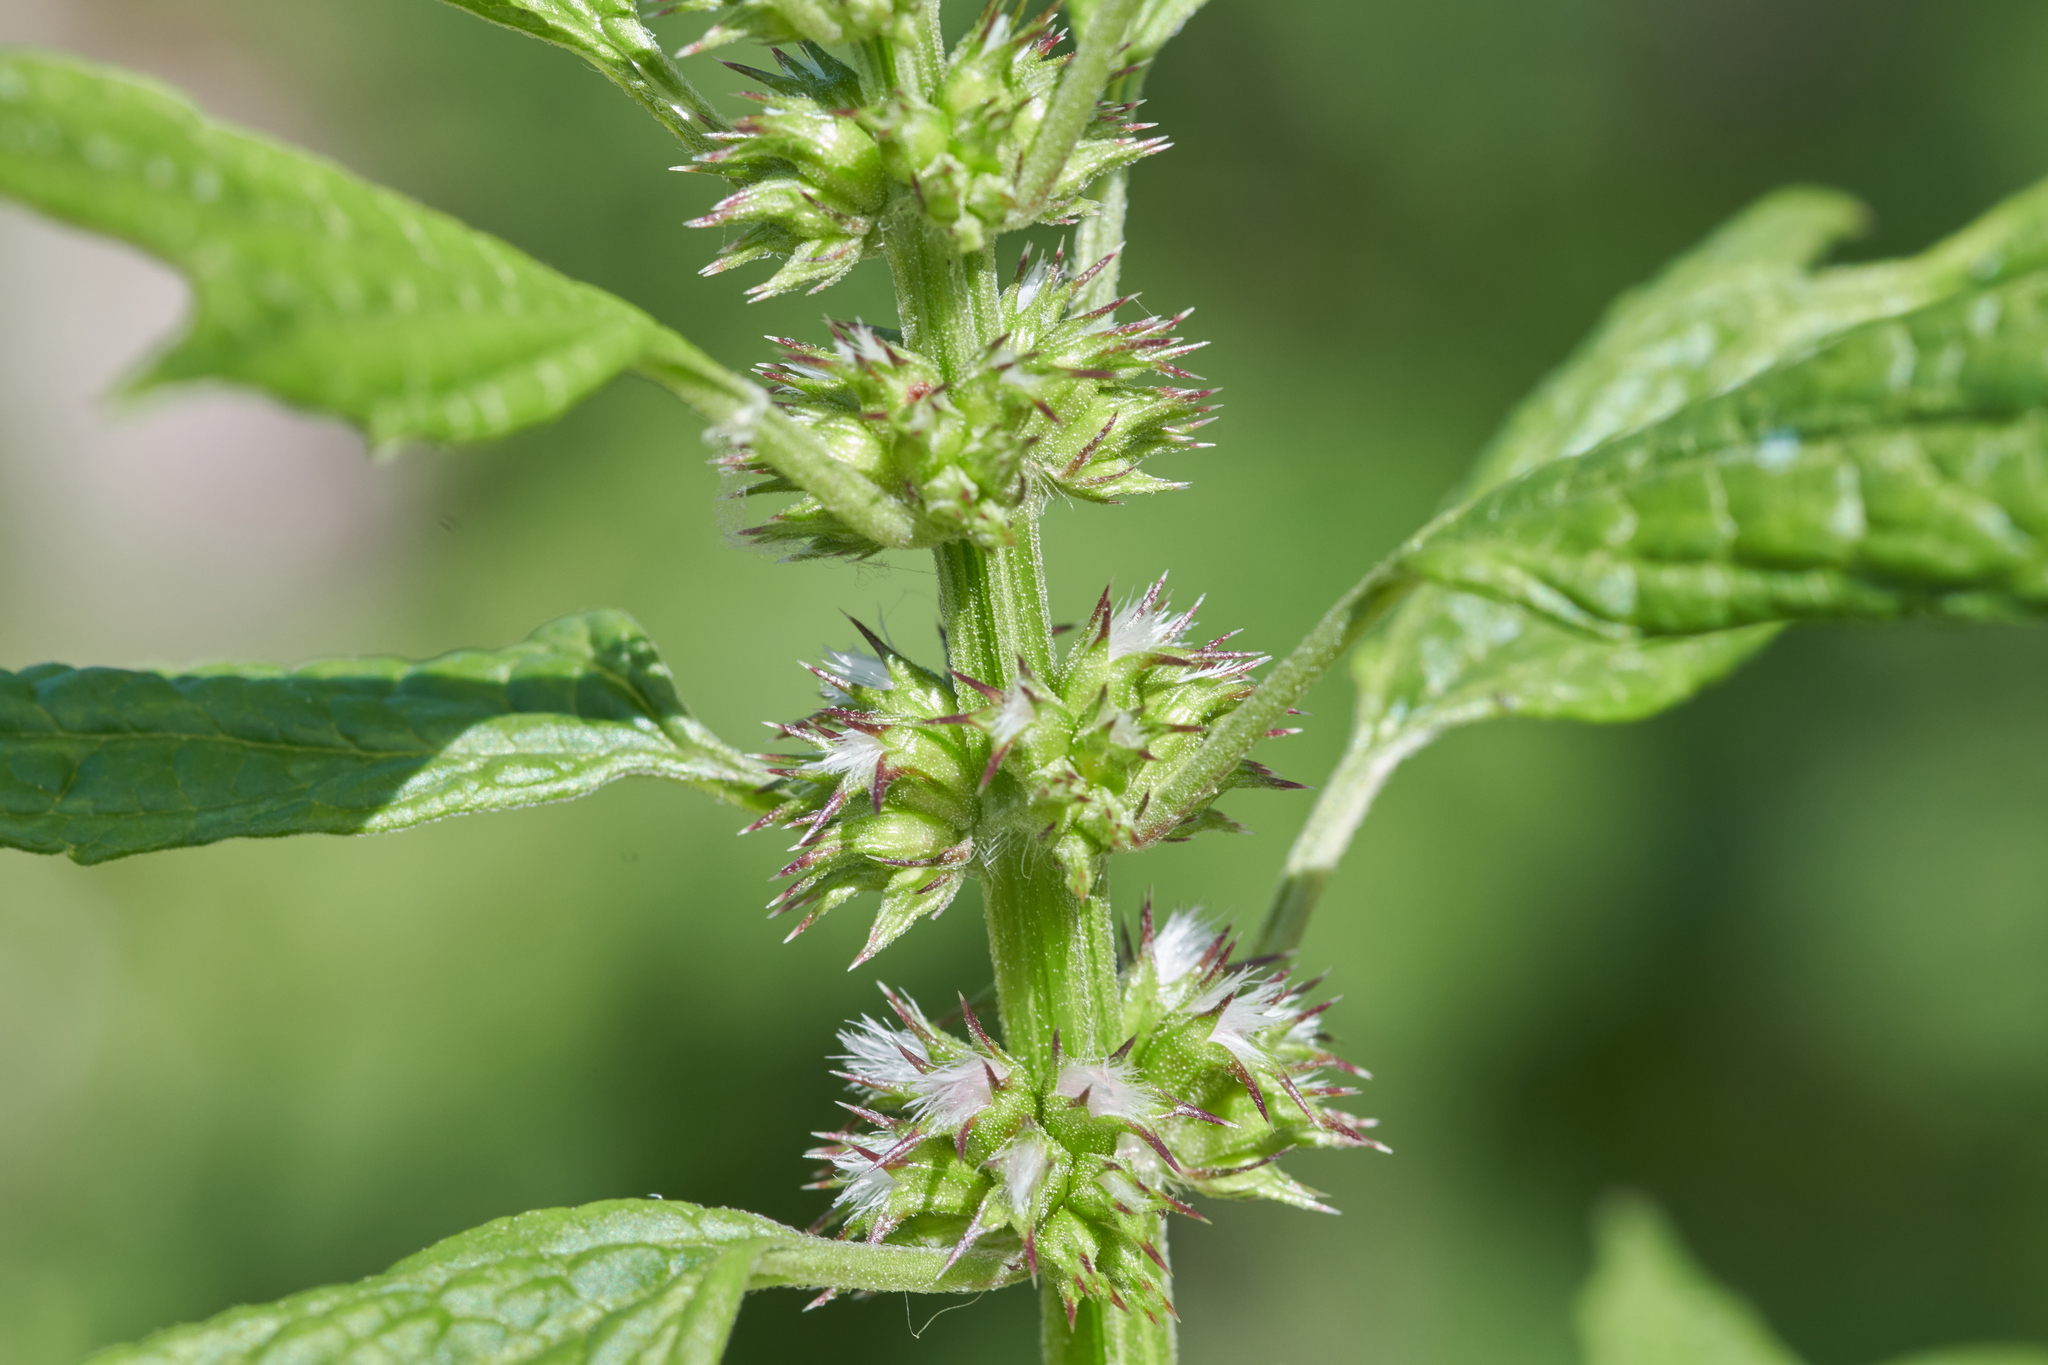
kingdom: Plantae
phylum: Tracheophyta
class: Magnoliopsida
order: Lamiales
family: Lamiaceae
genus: Leonurus
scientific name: Leonurus cardiaca
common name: Motherwort
